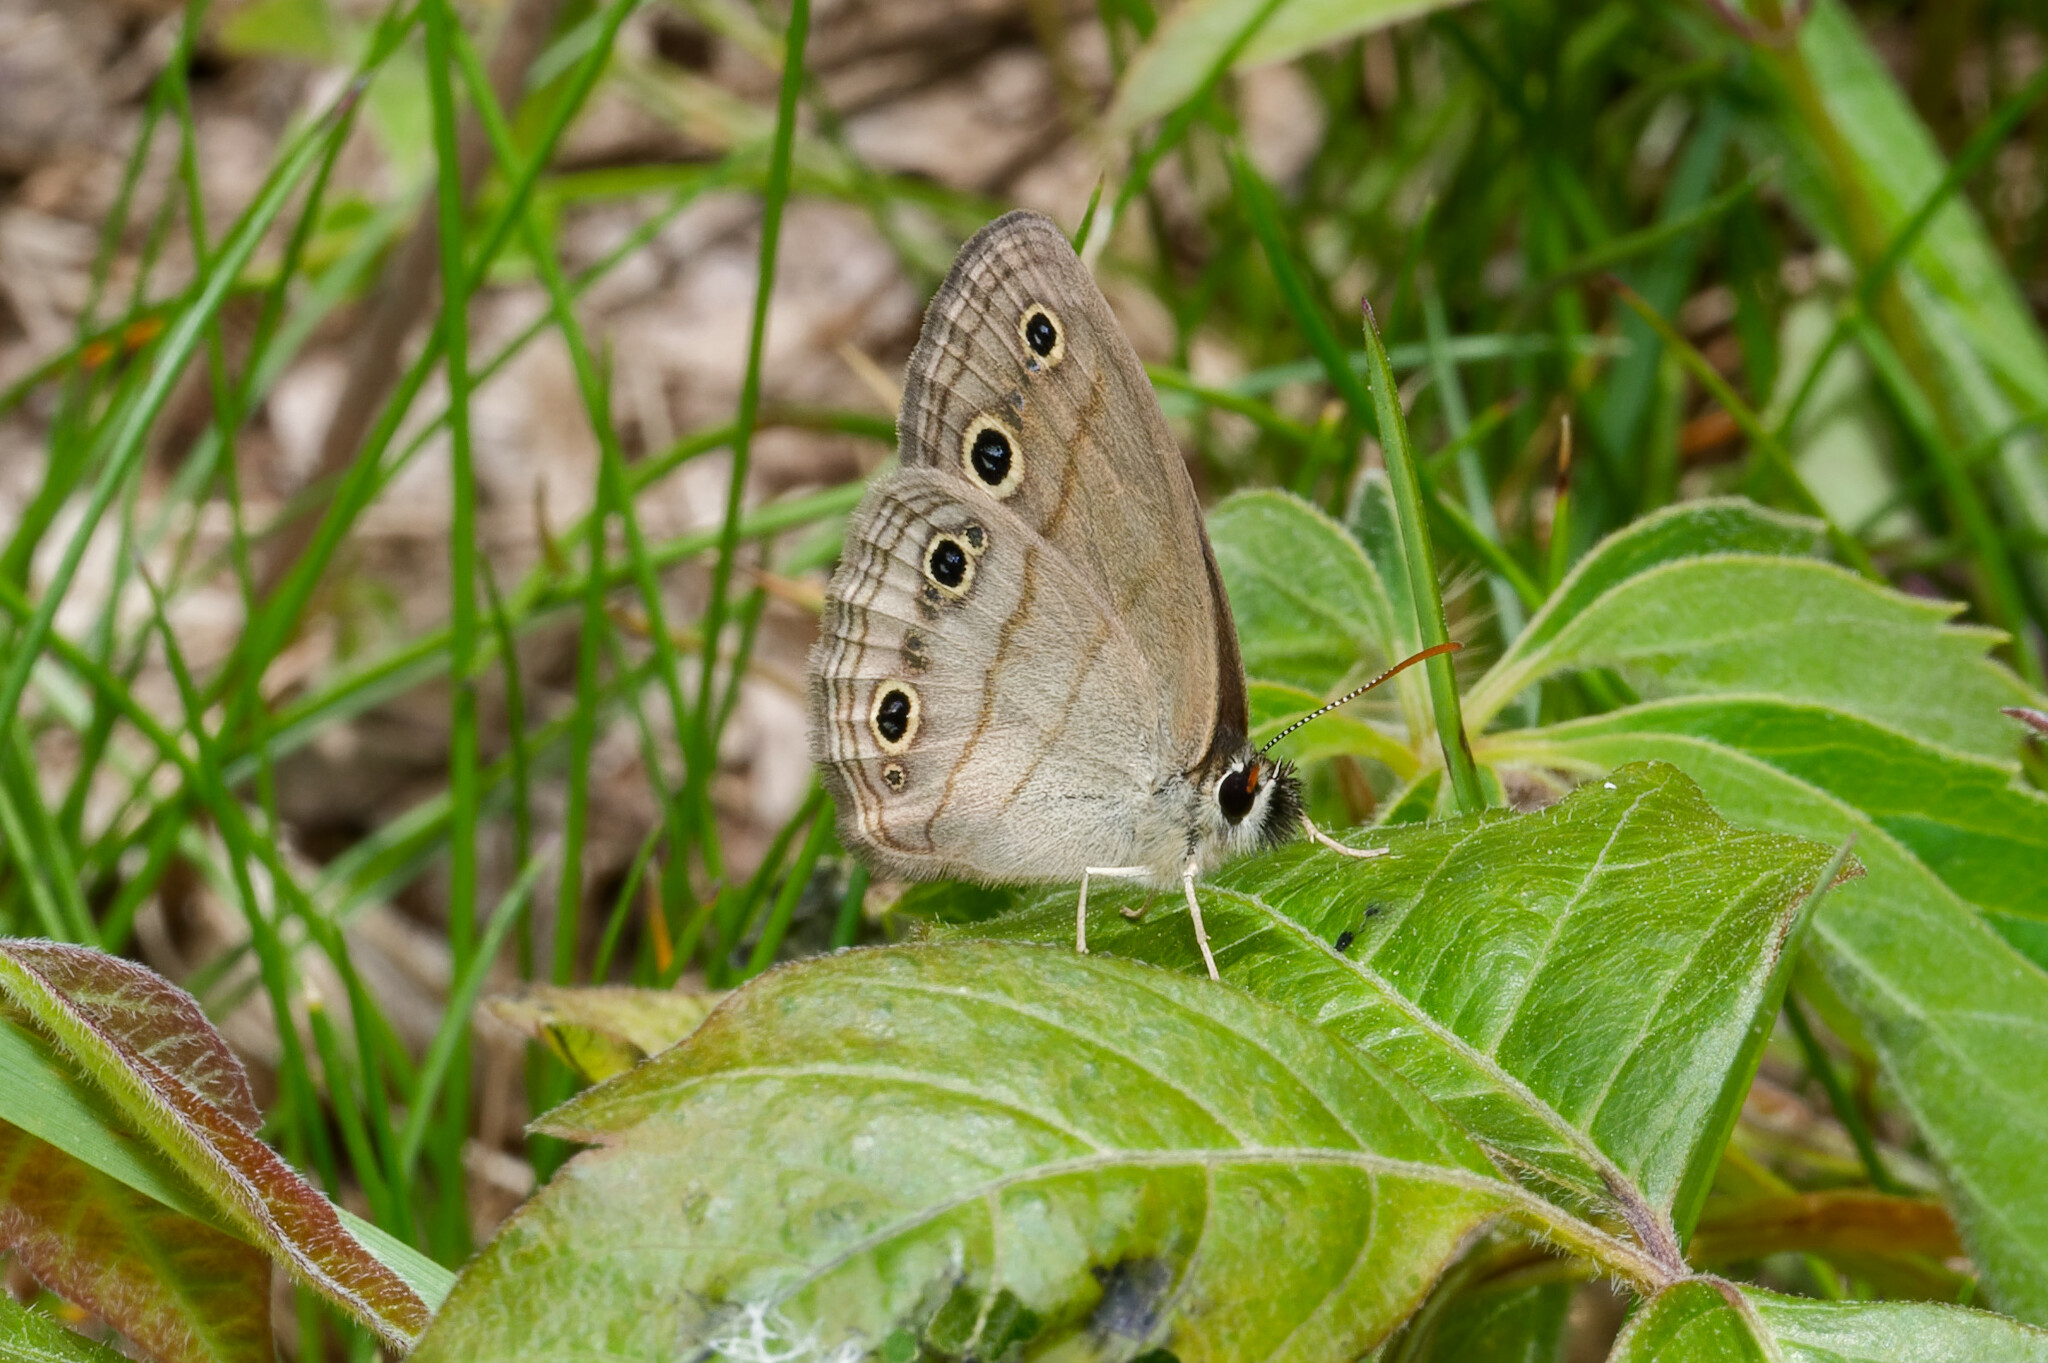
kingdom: Animalia
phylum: Arthropoda
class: Insecta
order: Lepidoptera
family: Nymphalidae
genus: Euptychia
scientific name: Euptychia cymela
